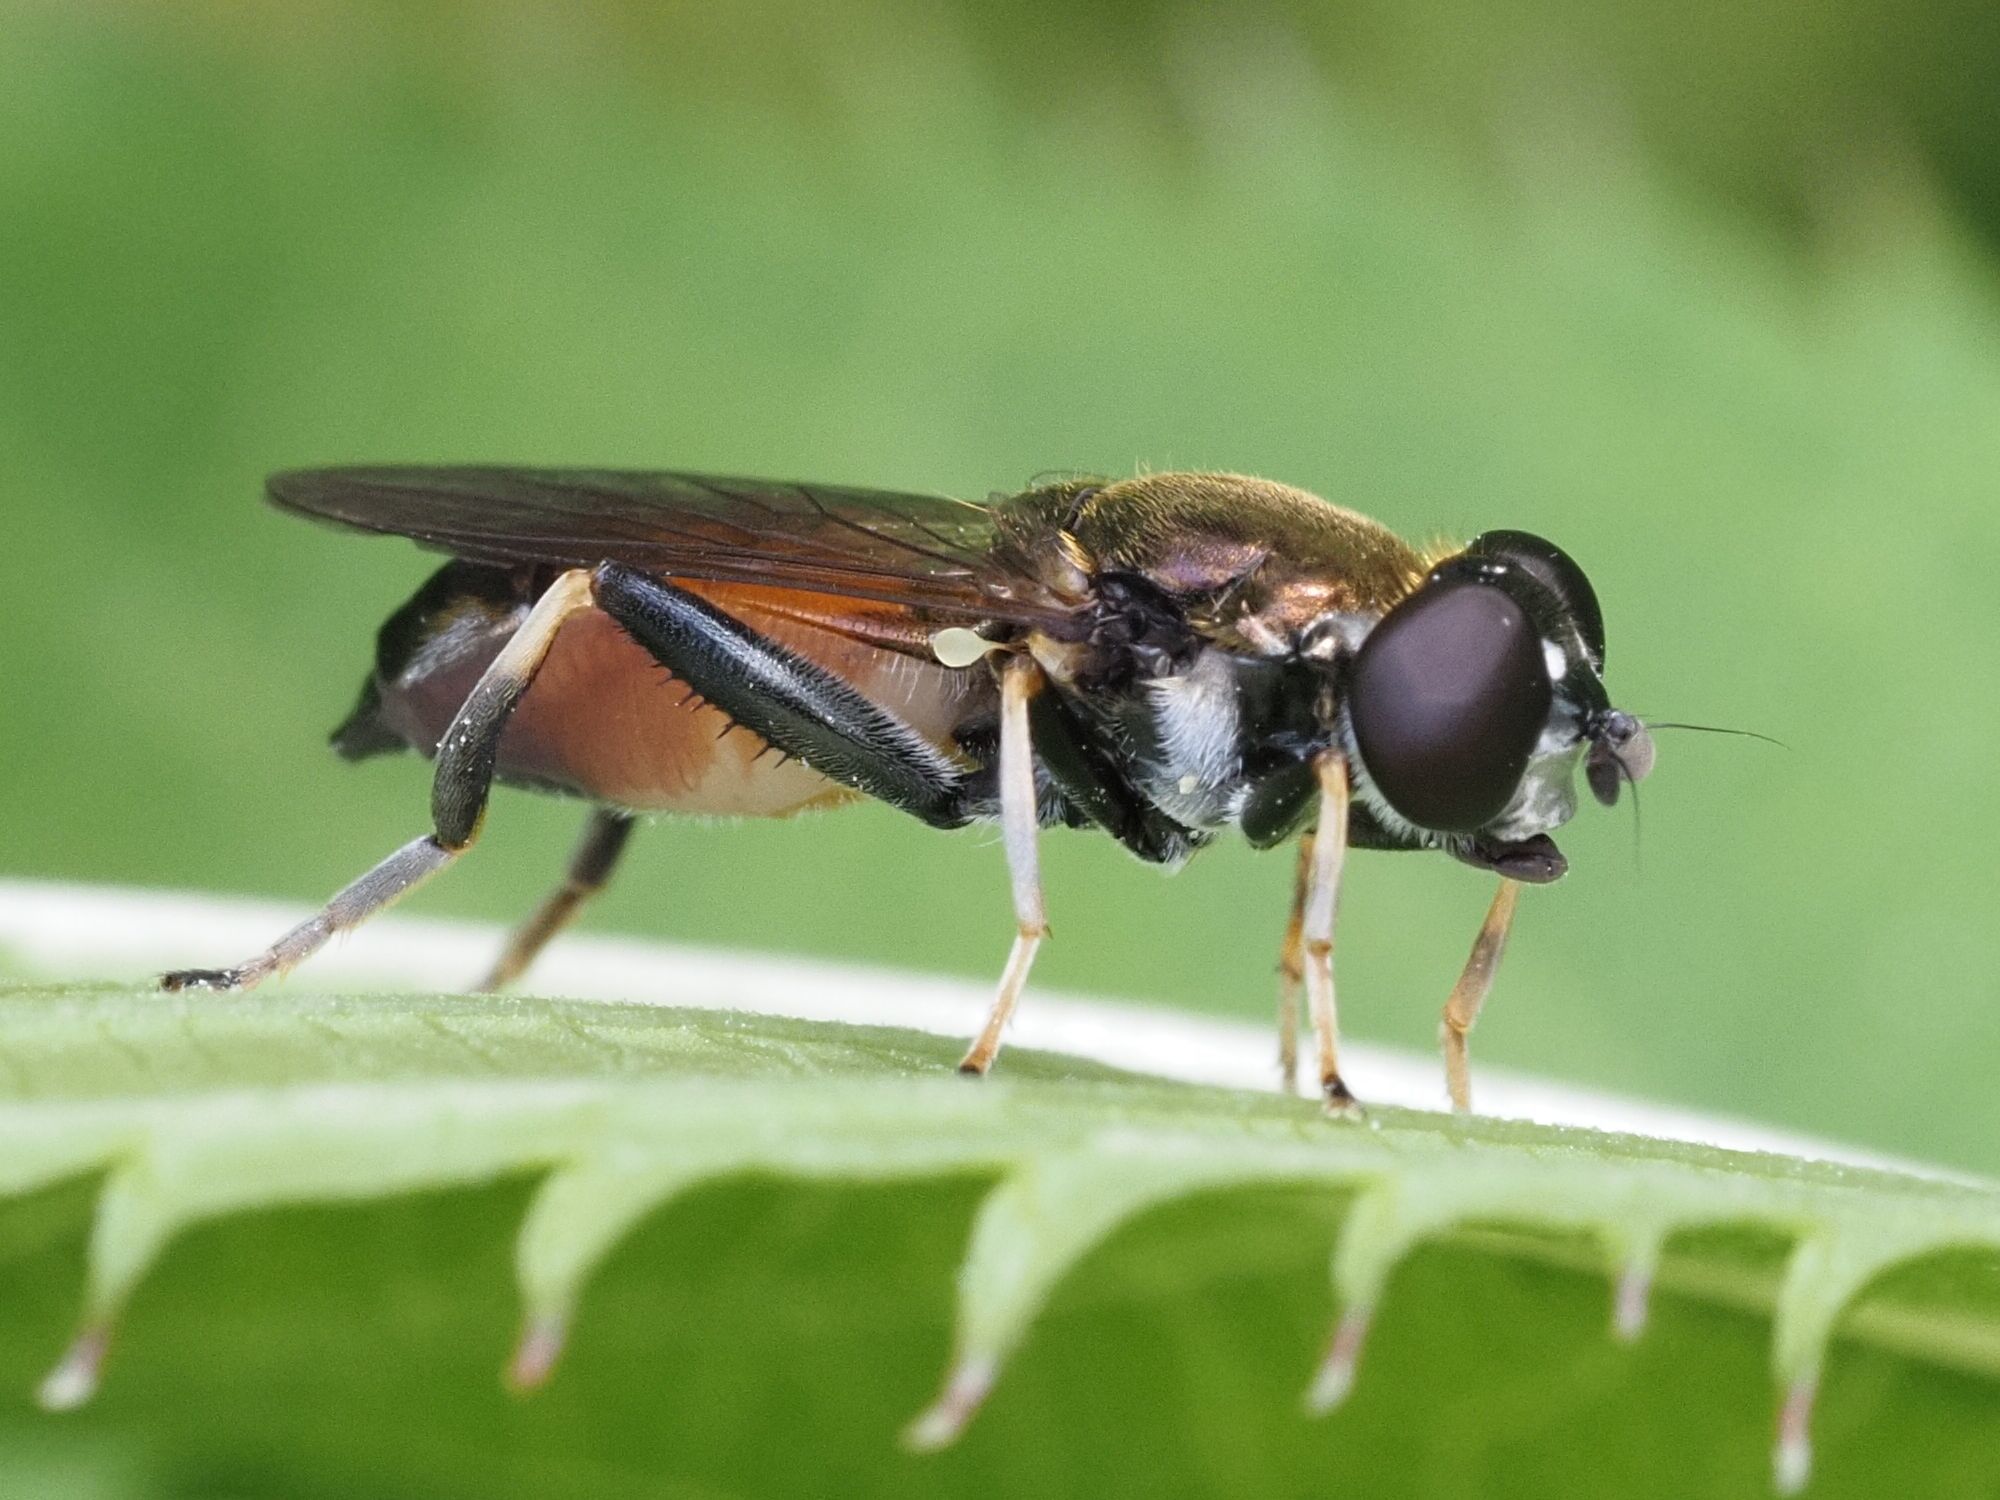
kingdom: Animalia
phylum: Arthropoda
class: Insecta
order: Diptera
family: Syrphidae
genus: Xylota
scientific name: Xylota segnis
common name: Brown-toed forest fly
